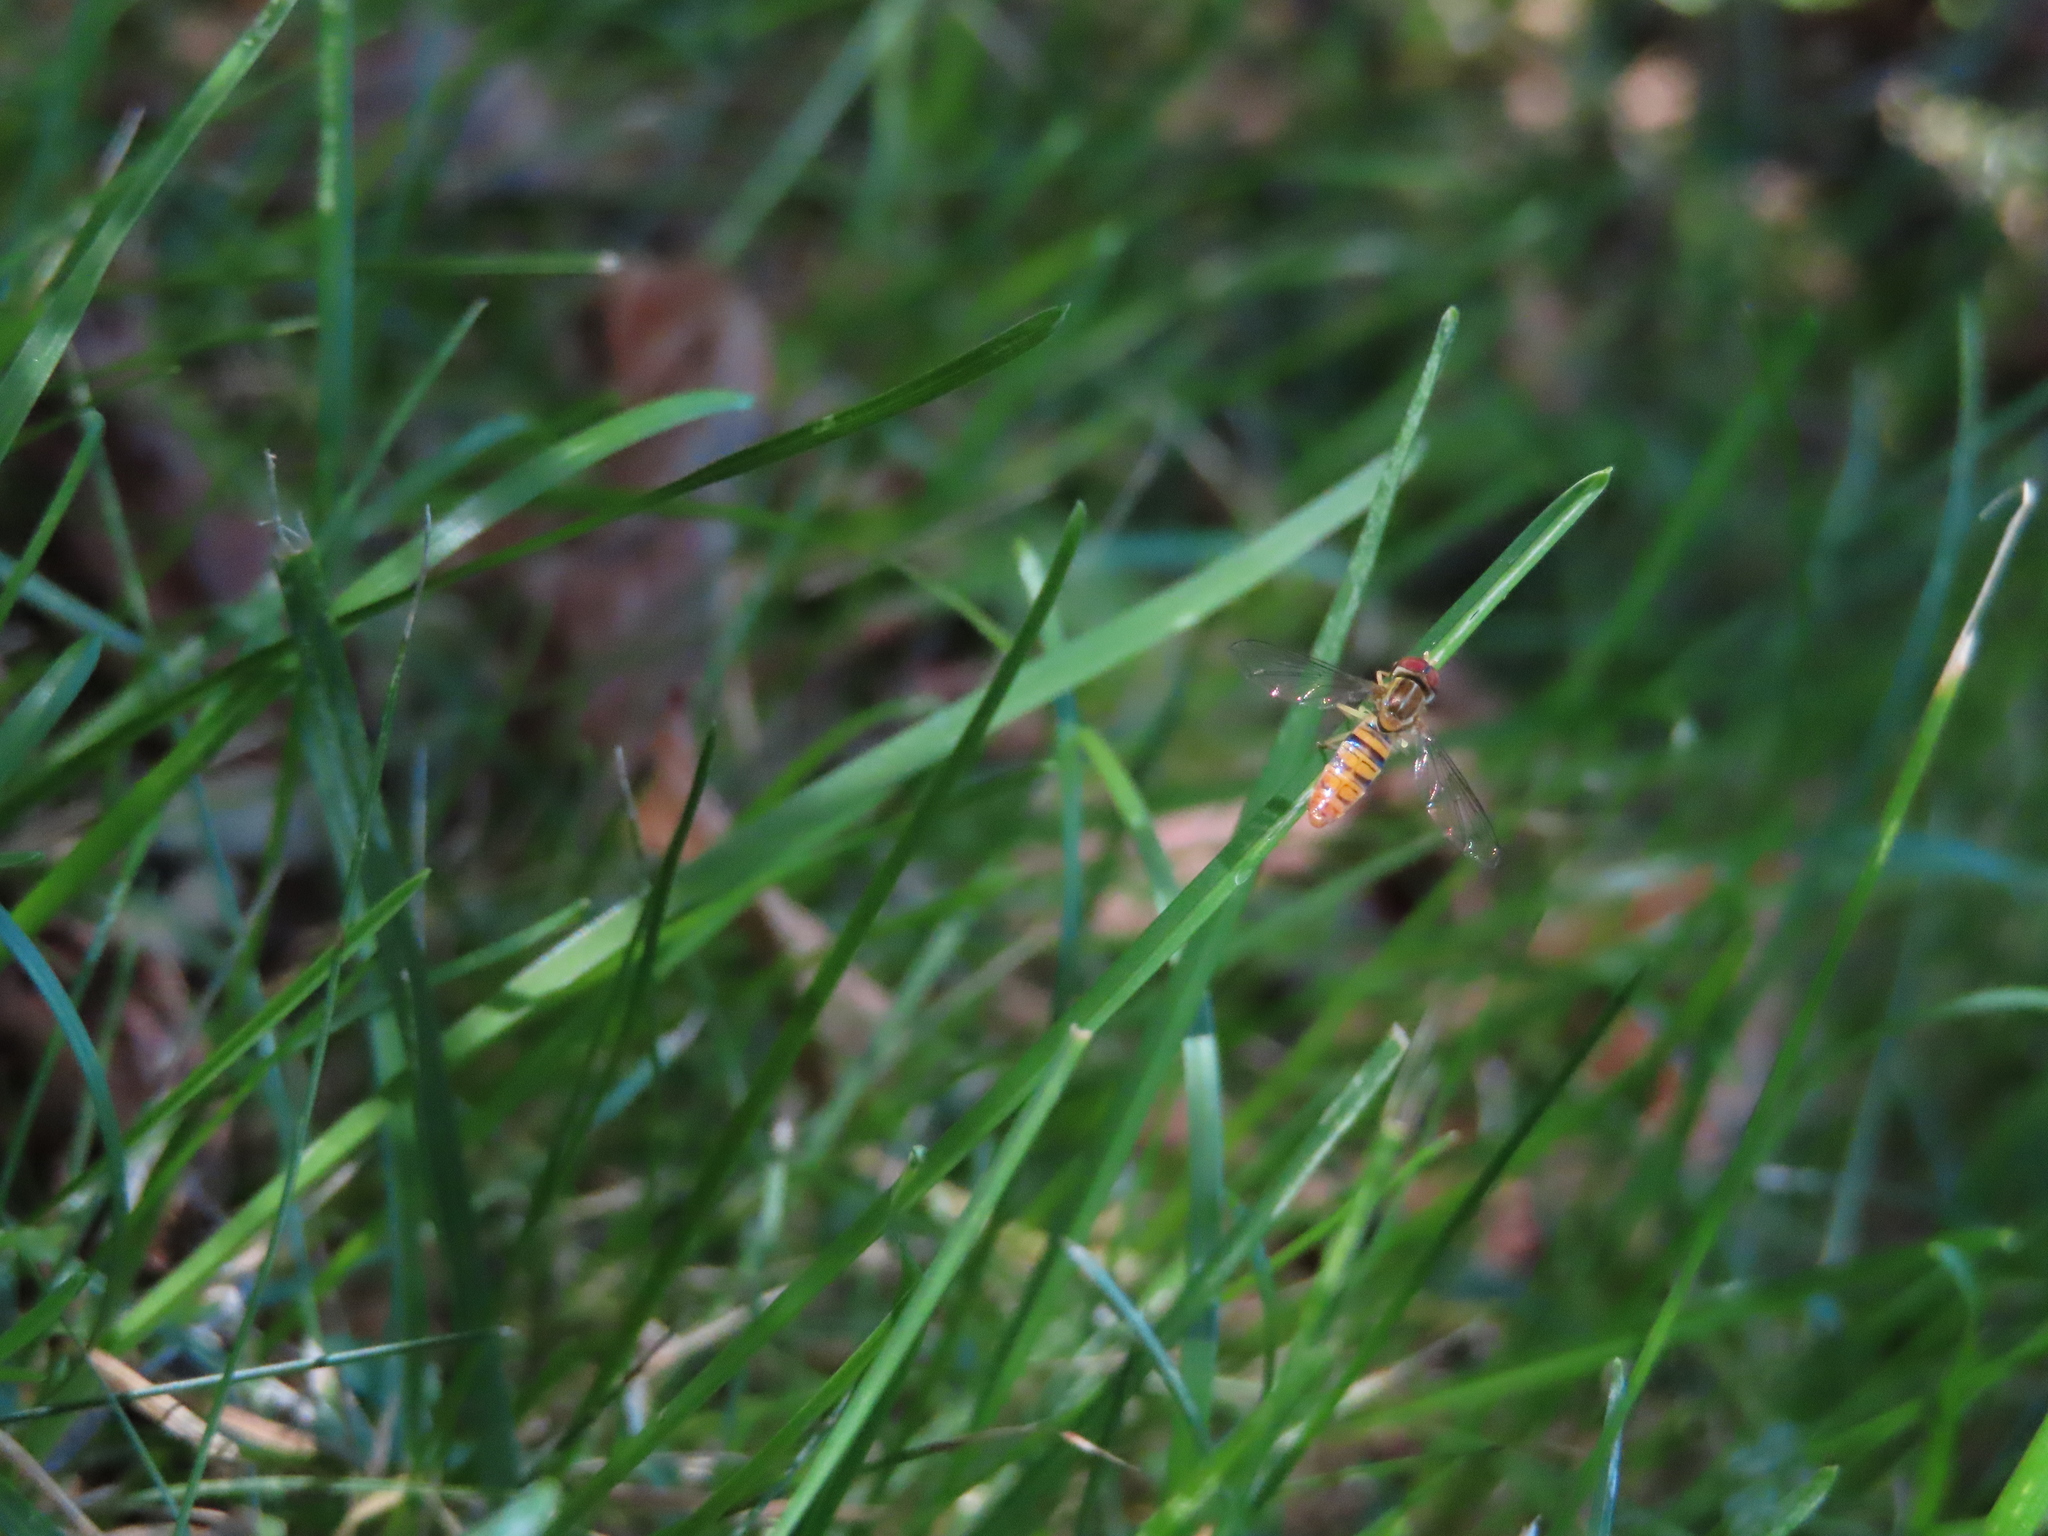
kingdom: Animalia
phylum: Arthropoda
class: Insecta
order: Diptera
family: Syrphidae
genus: Toxomerus
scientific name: Toxomerus politus
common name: Maize calligrapher
